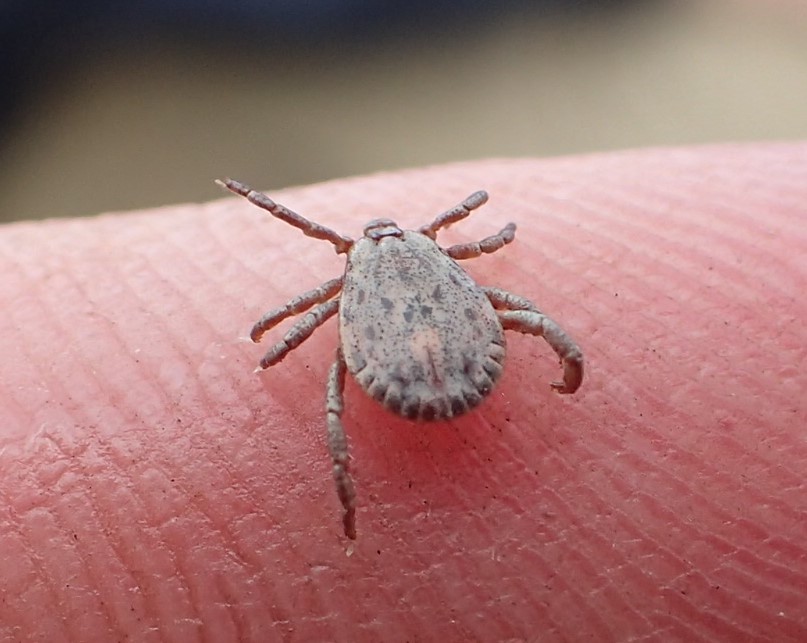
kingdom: Animalia
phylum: Arthropoda
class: Arachnida
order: Ixodida
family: Ixodidae
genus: Dermacentor
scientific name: Dermacentor occidentalis
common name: Net tick
